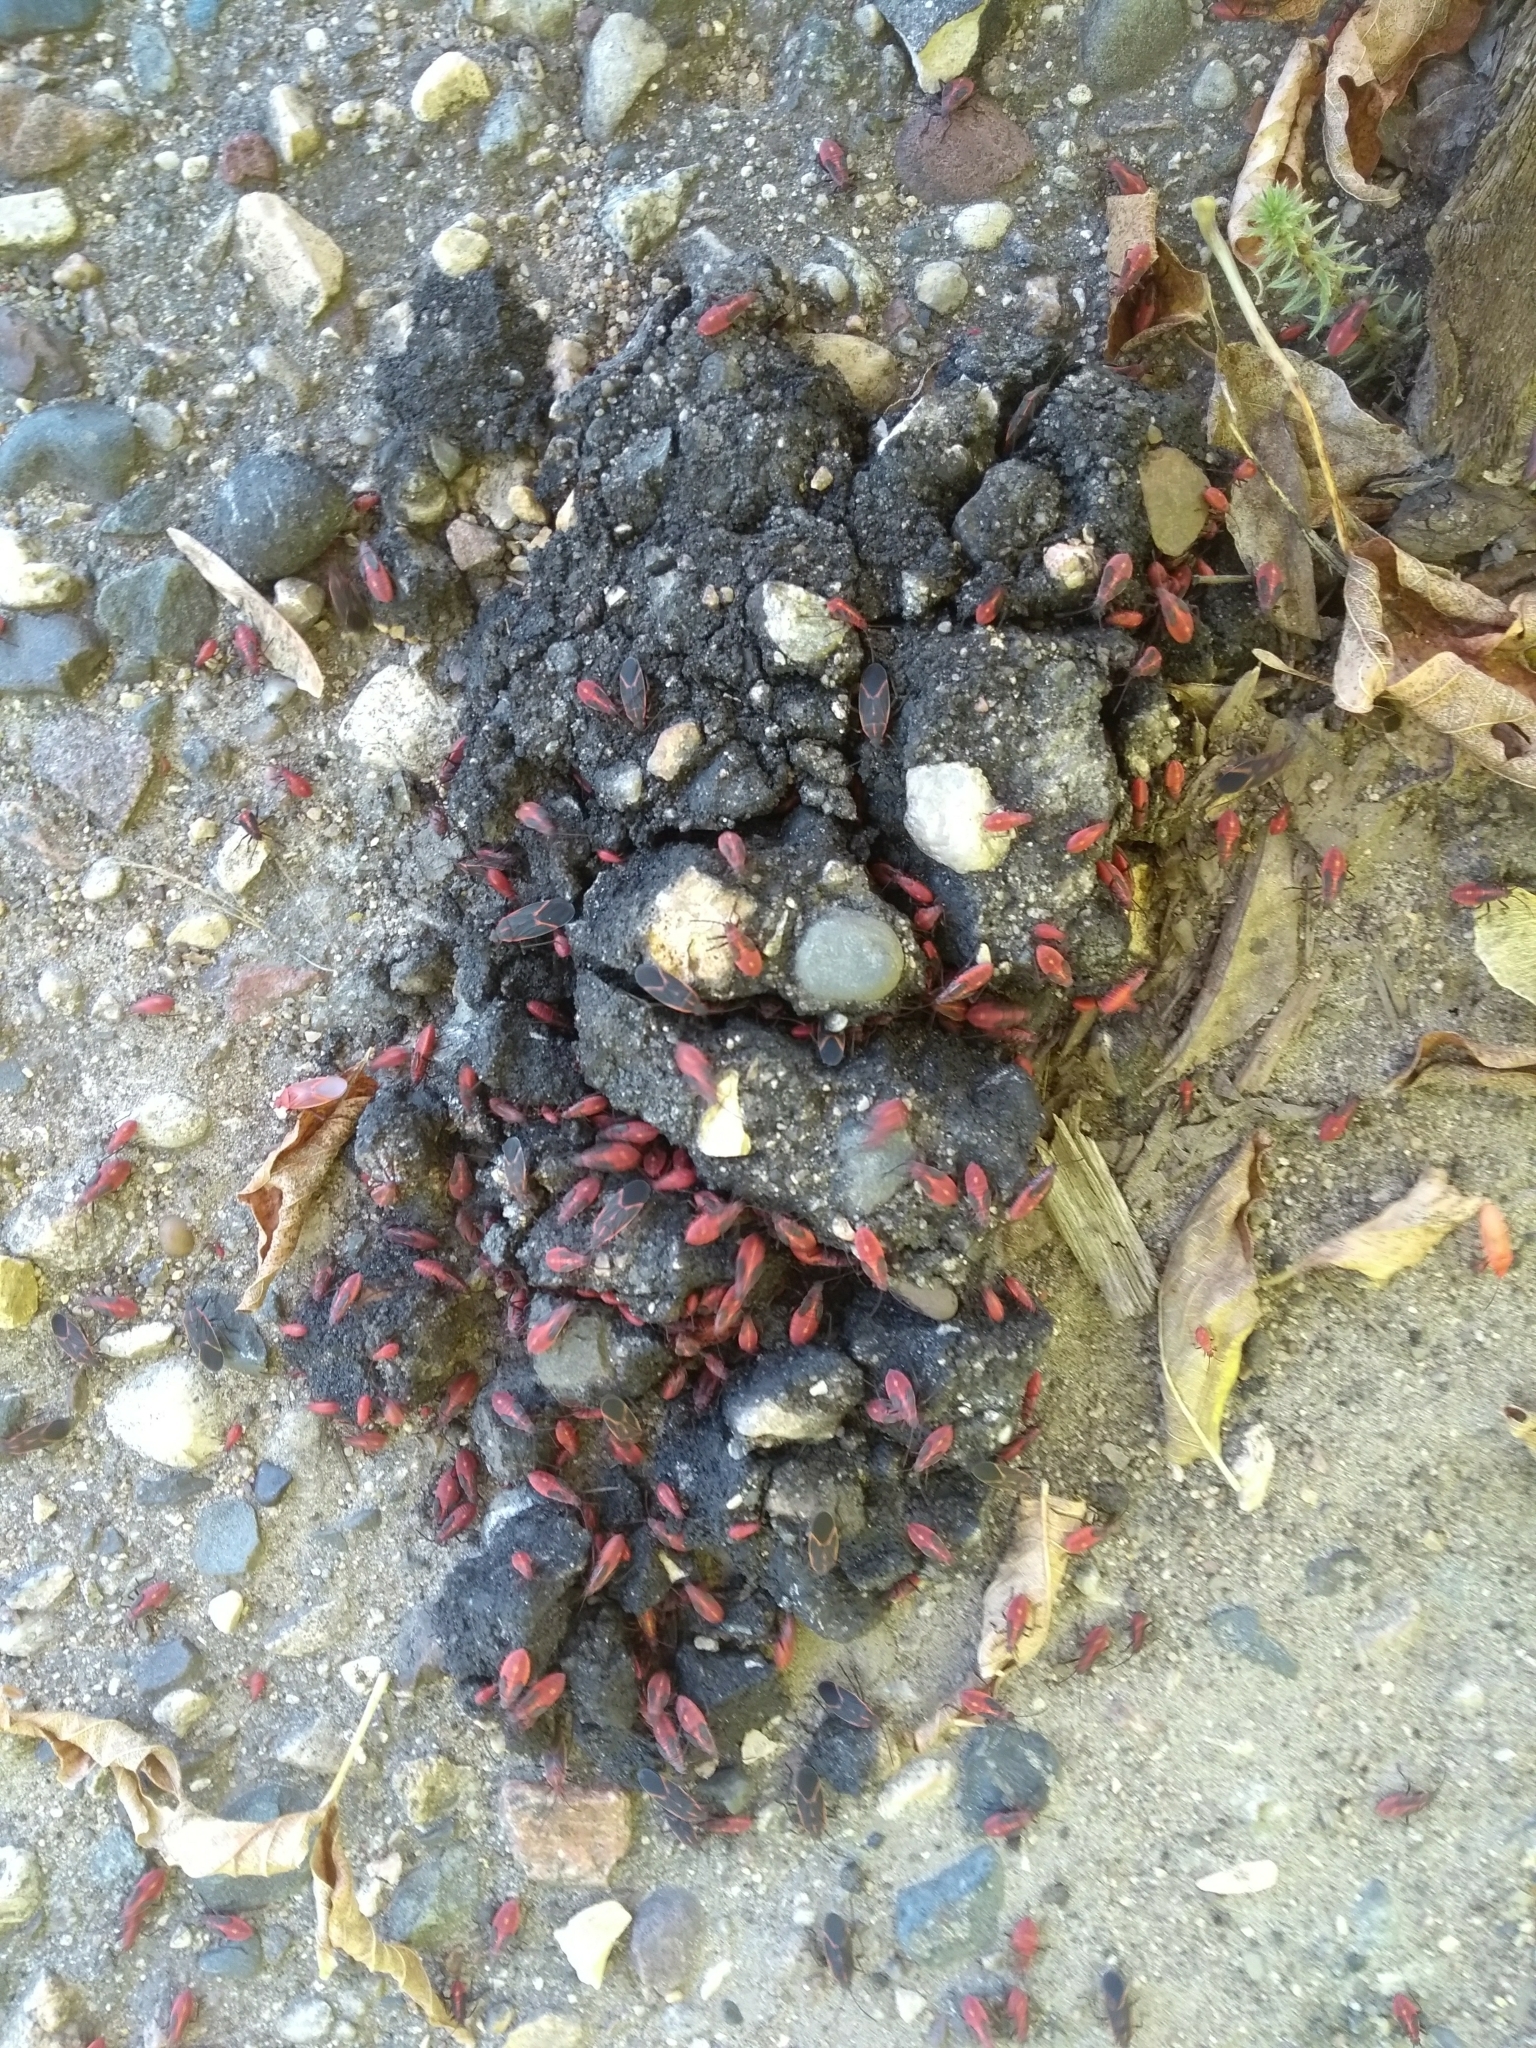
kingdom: Animalia
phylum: Arthropoda
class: Insecta
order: Hemiptera
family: Rhopalidae
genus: Boisea
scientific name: Boisea trivittata
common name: Boxelder bug
